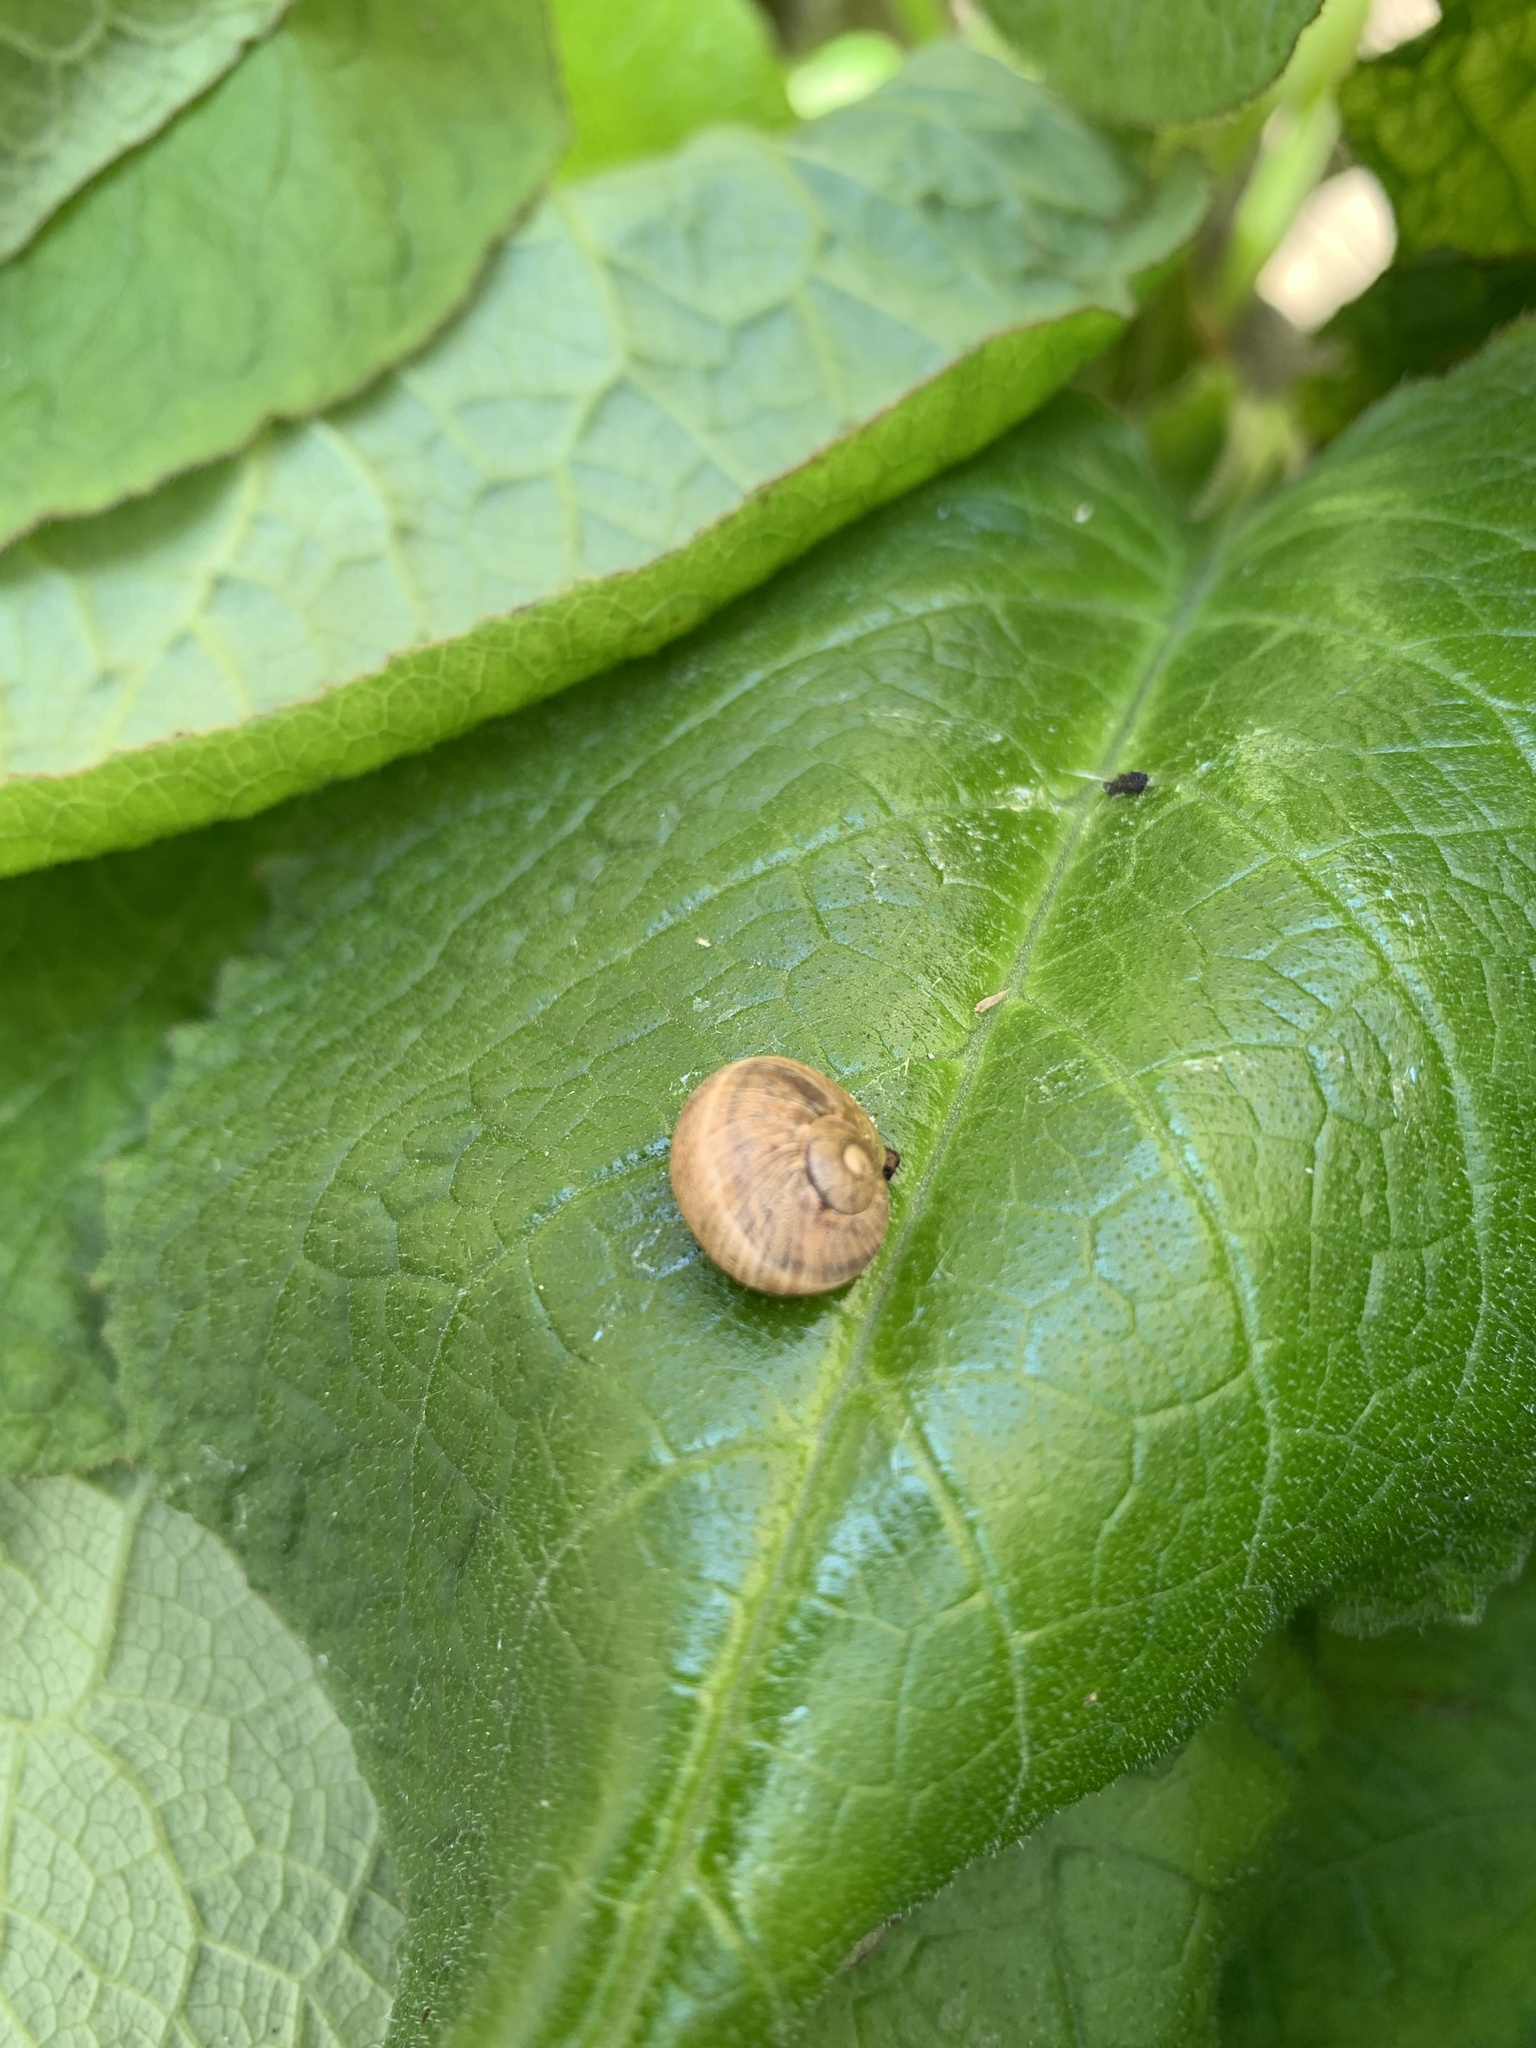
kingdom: Animalia
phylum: Mollusca
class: Gastropoda
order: Stylommatophora
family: Helicidae
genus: Cornu
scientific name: Cornu aspersum
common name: Brown garden snail
